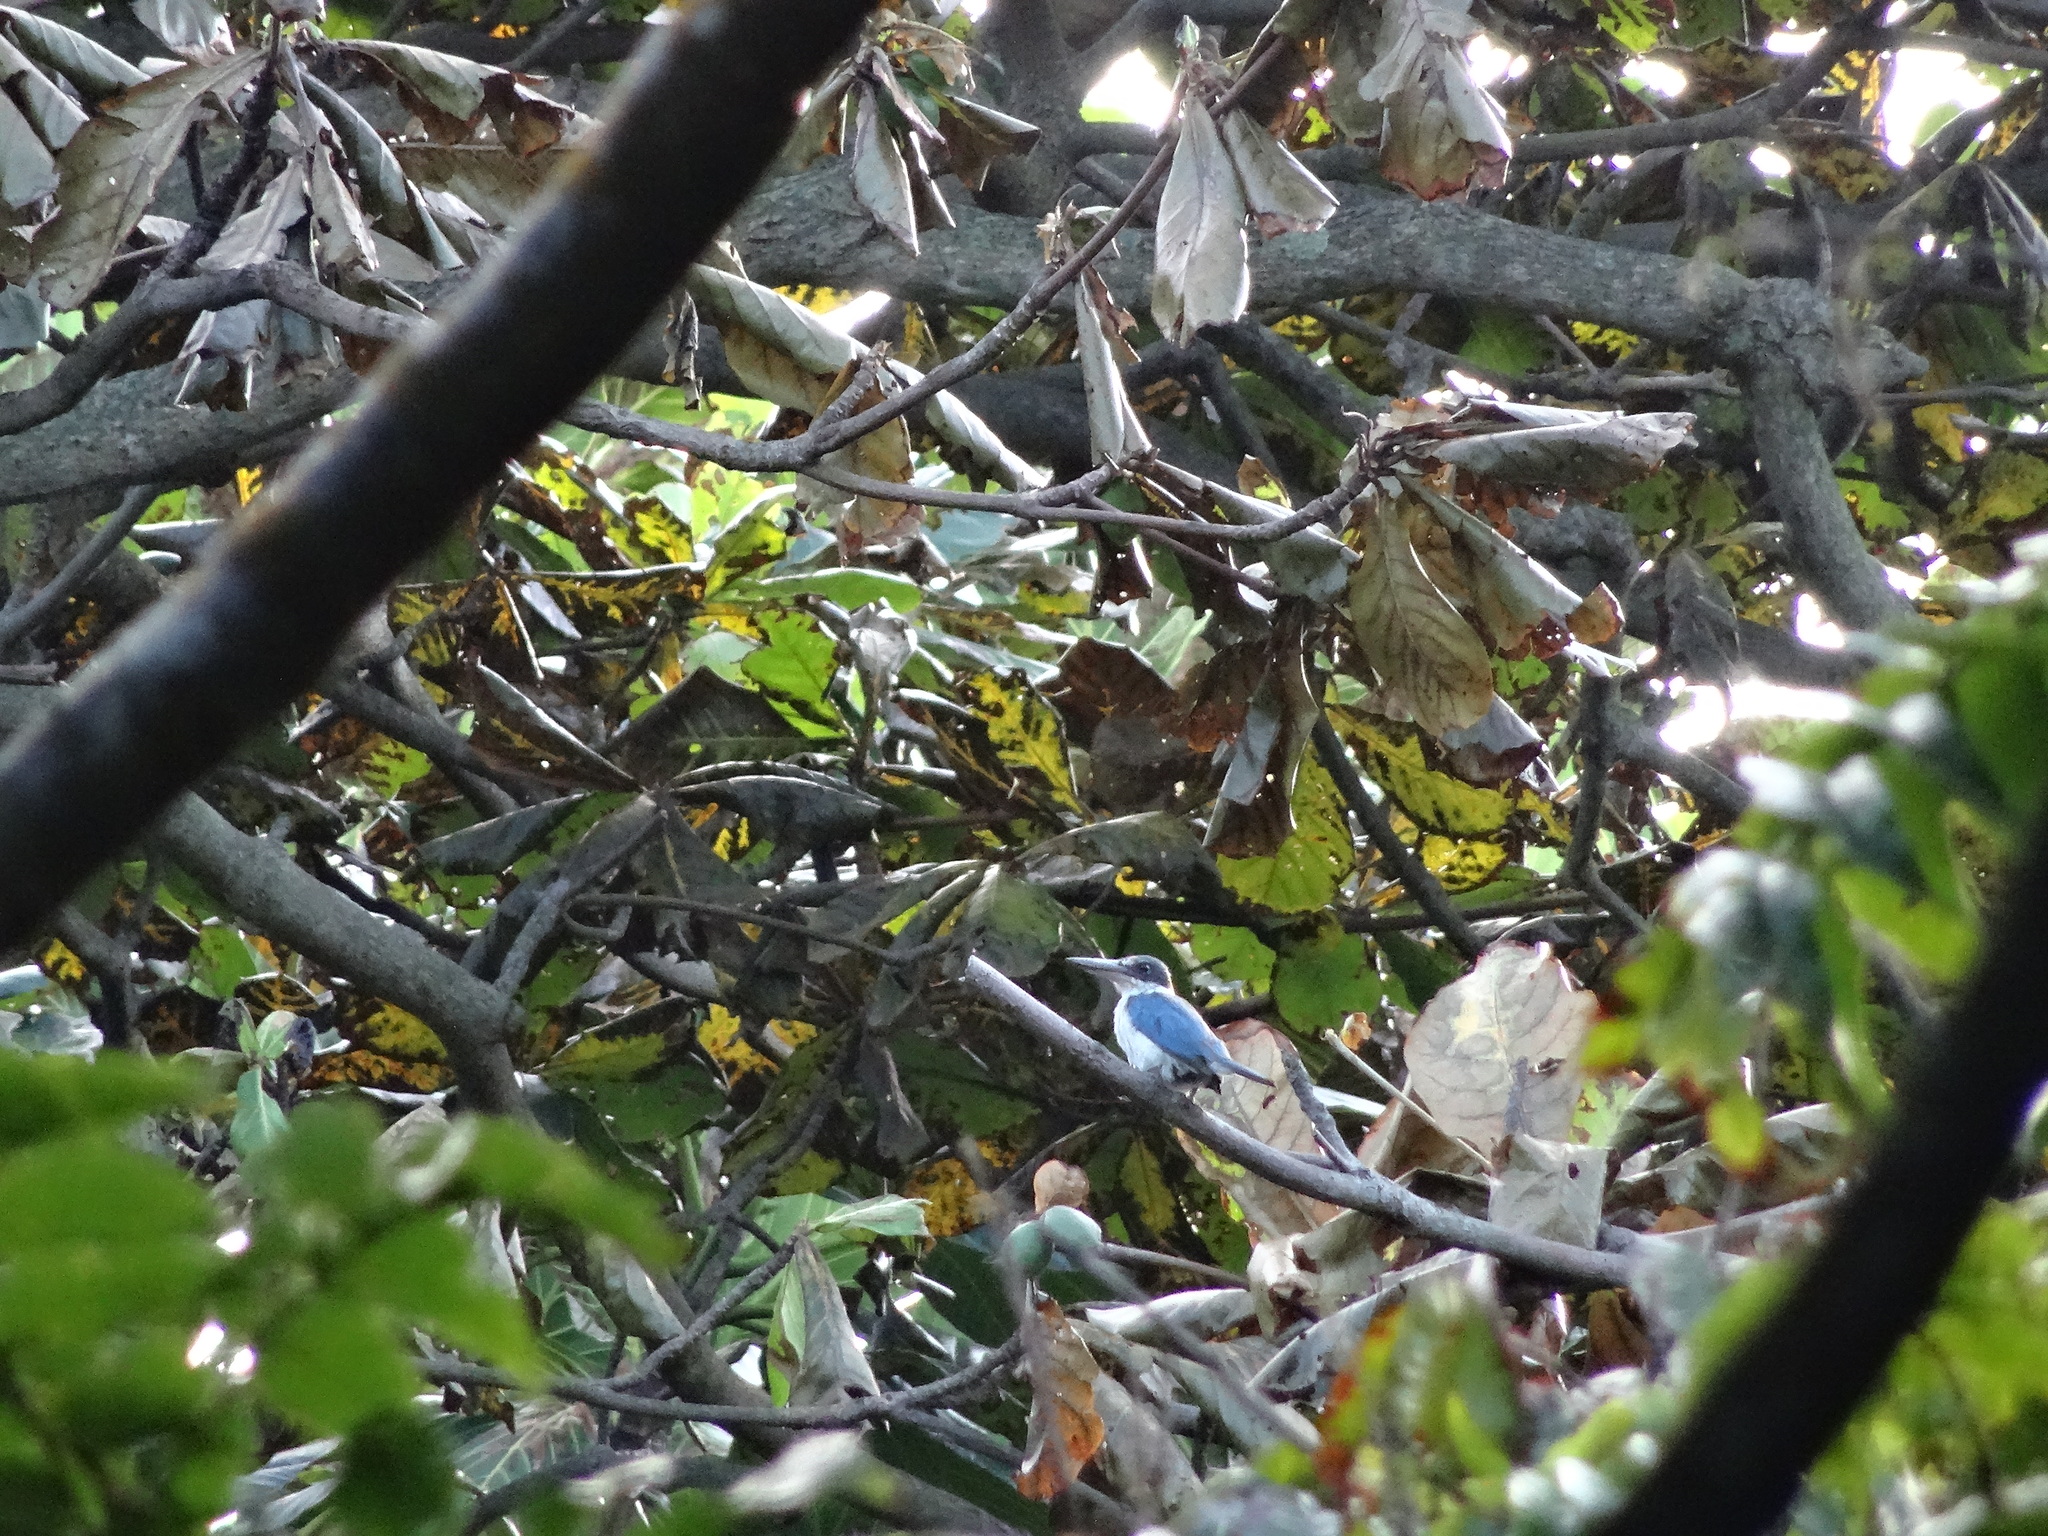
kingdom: Animalia
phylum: Chordata
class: Aves
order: Coraciiformes
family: Alcedinidae
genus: Todiramphus
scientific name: Todiramphus chloris
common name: Collared kingfisher
